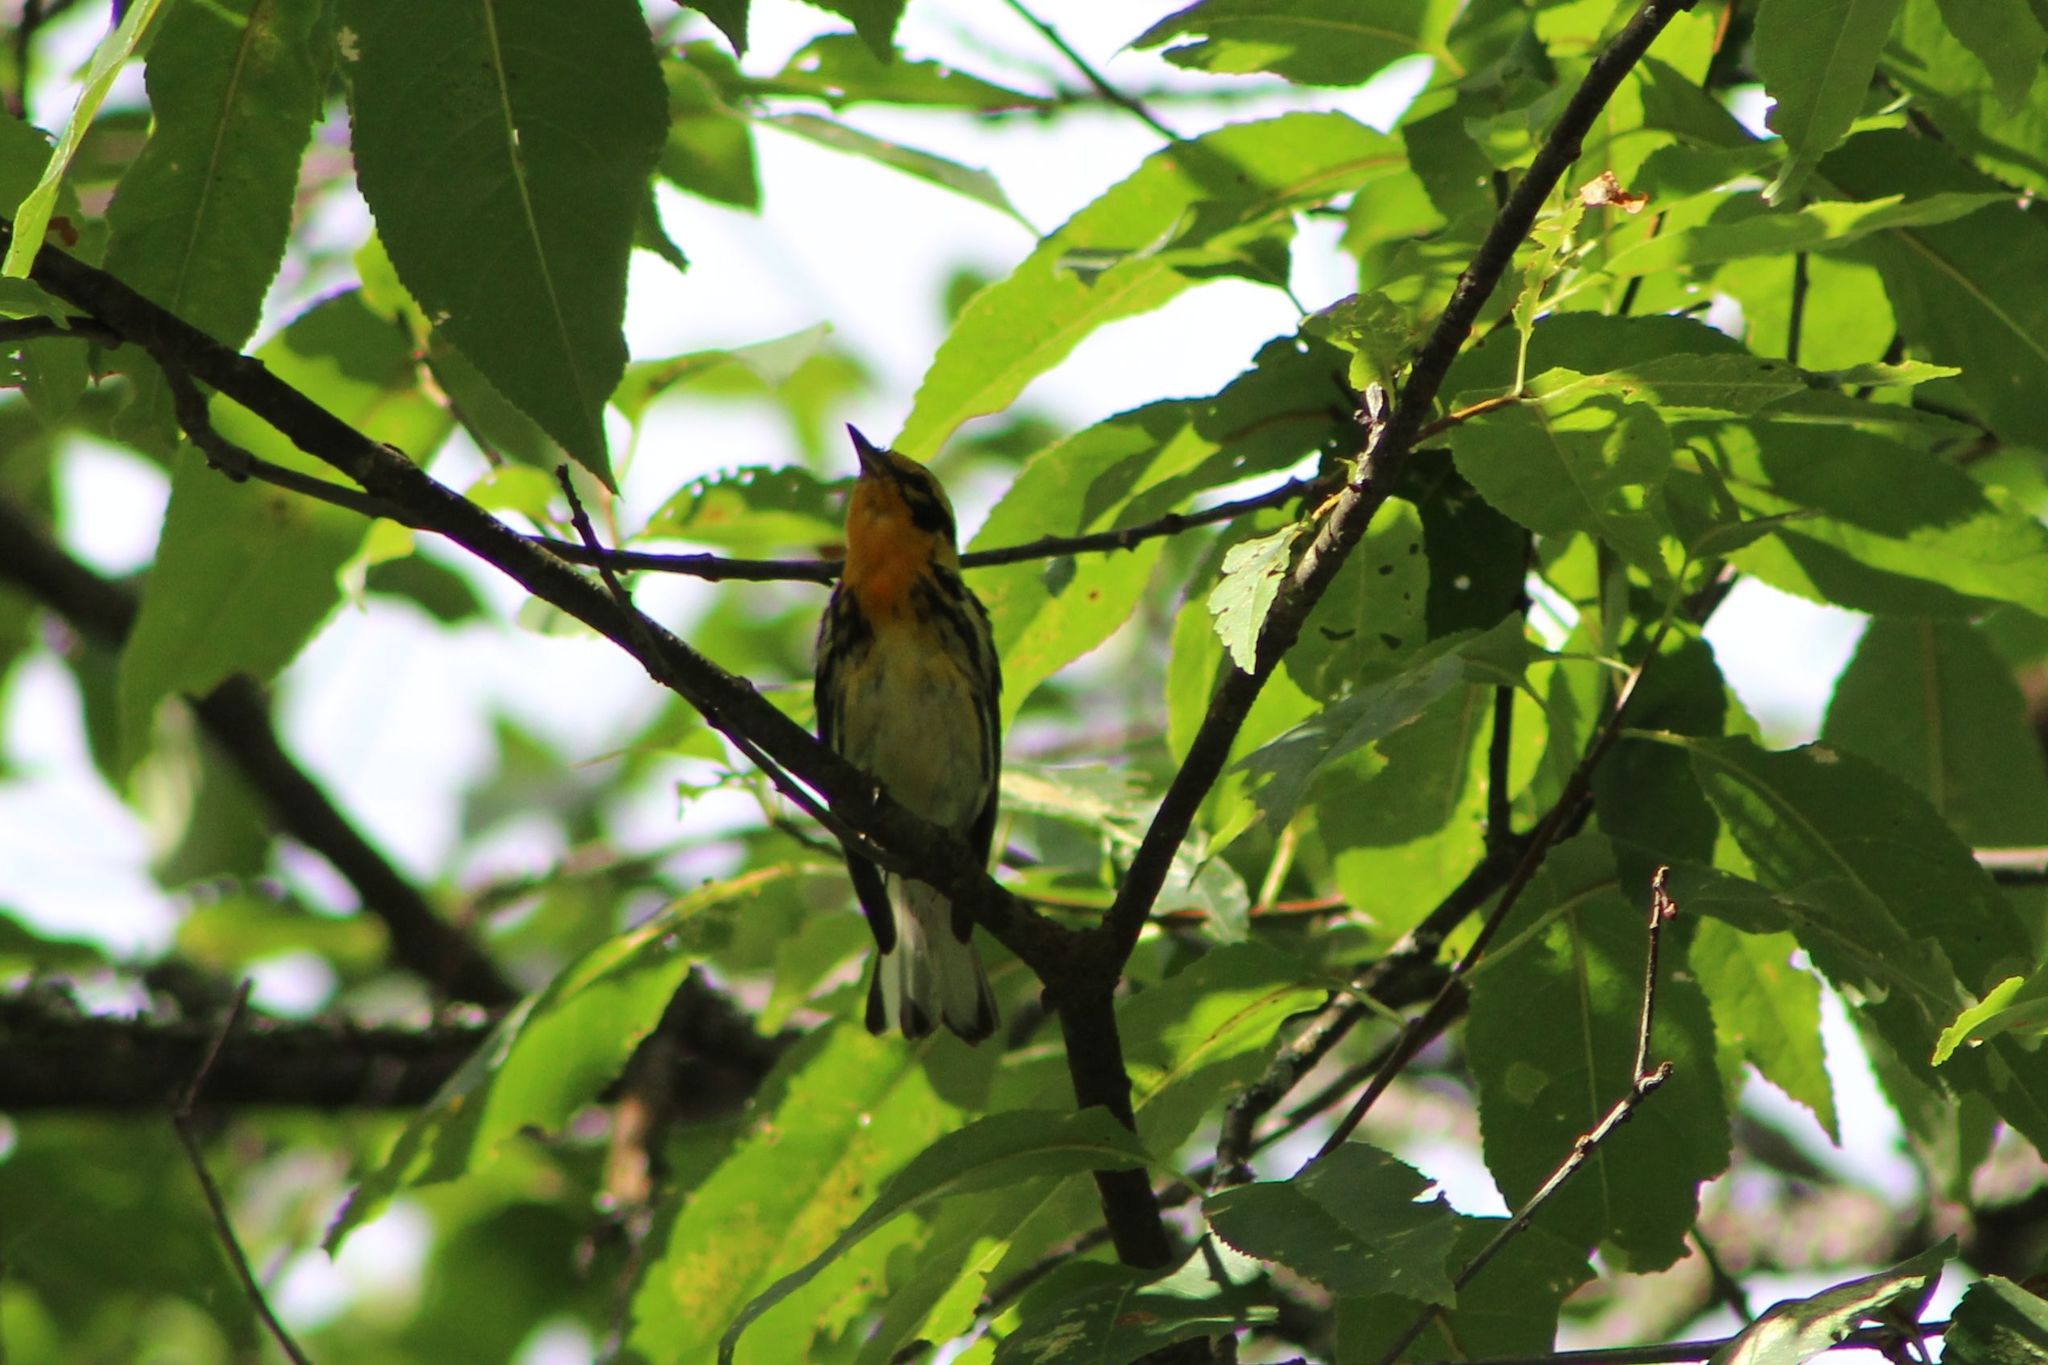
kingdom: Animalia
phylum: Chordata
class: Aves
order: Passeriformes
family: Parulidae
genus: Setophaga
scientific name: Setophaga fusca
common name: Blackburnian warbler
